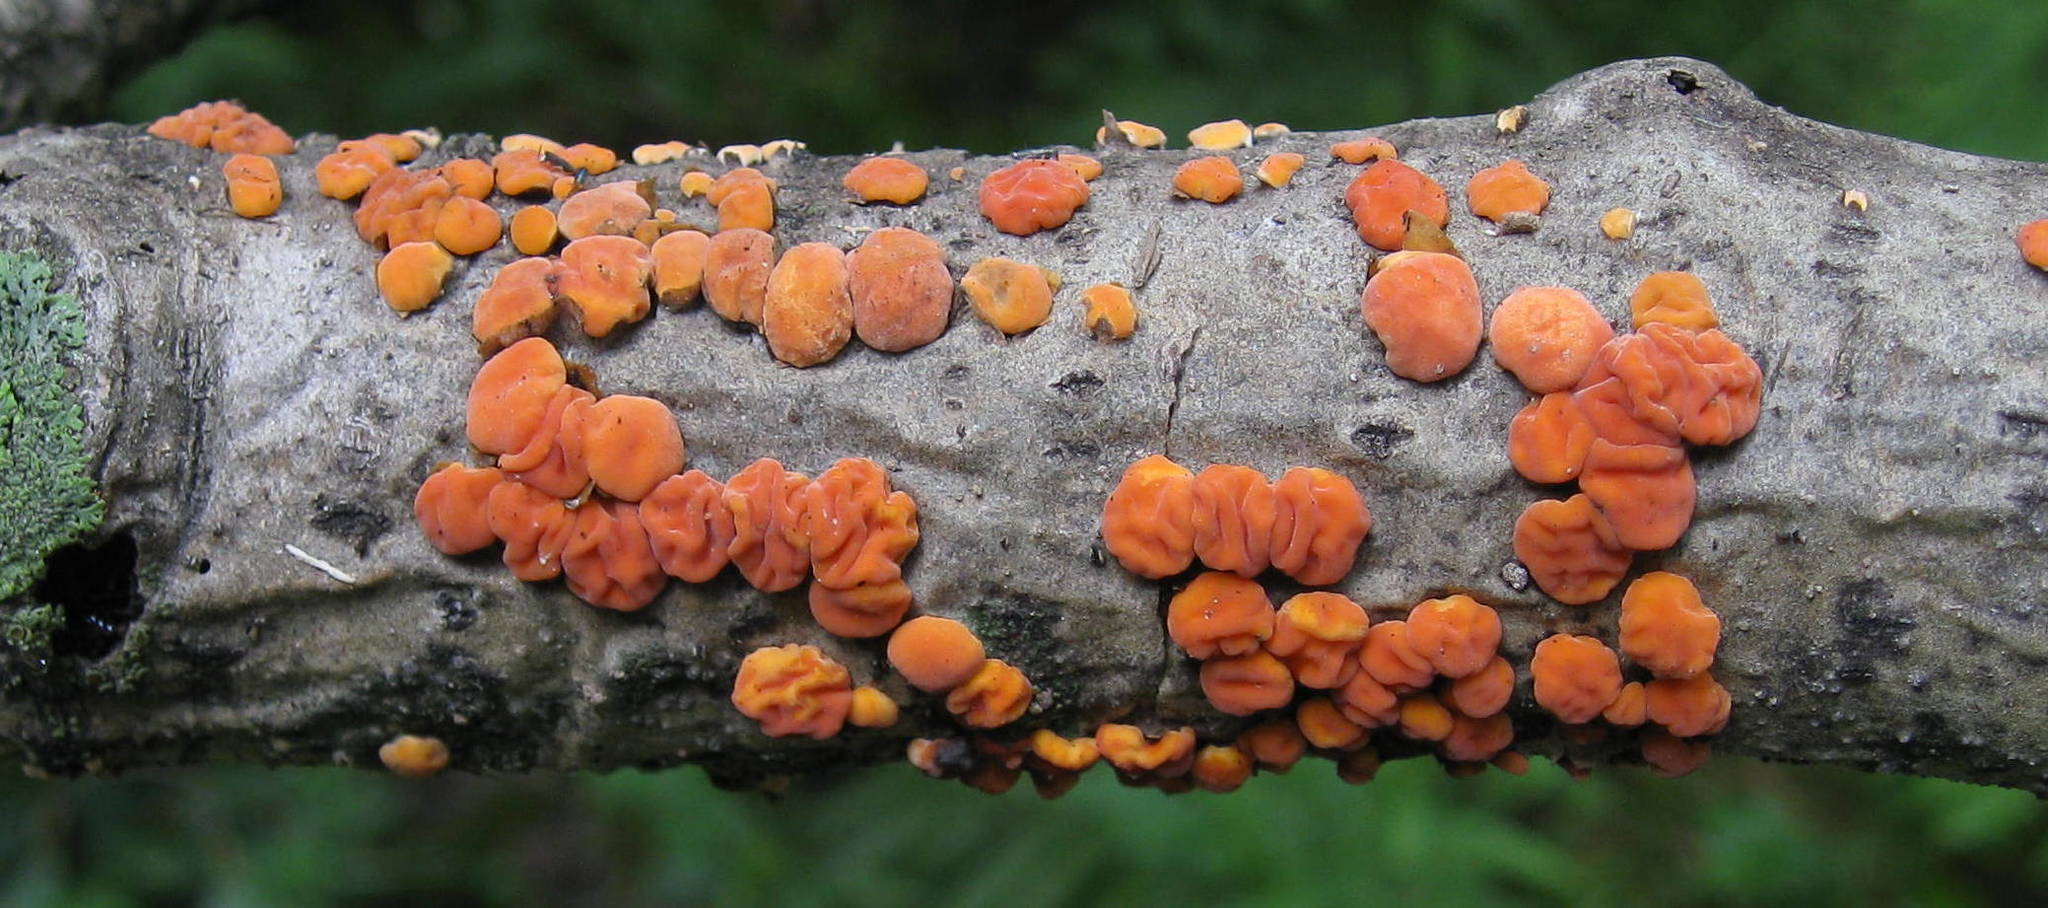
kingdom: Fungi
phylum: Basidiomycota
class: Agaricomycetes
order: Russulales
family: Peniophoraceae
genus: Peniophora
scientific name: Peniophora rufa
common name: Red tree brain fungus
